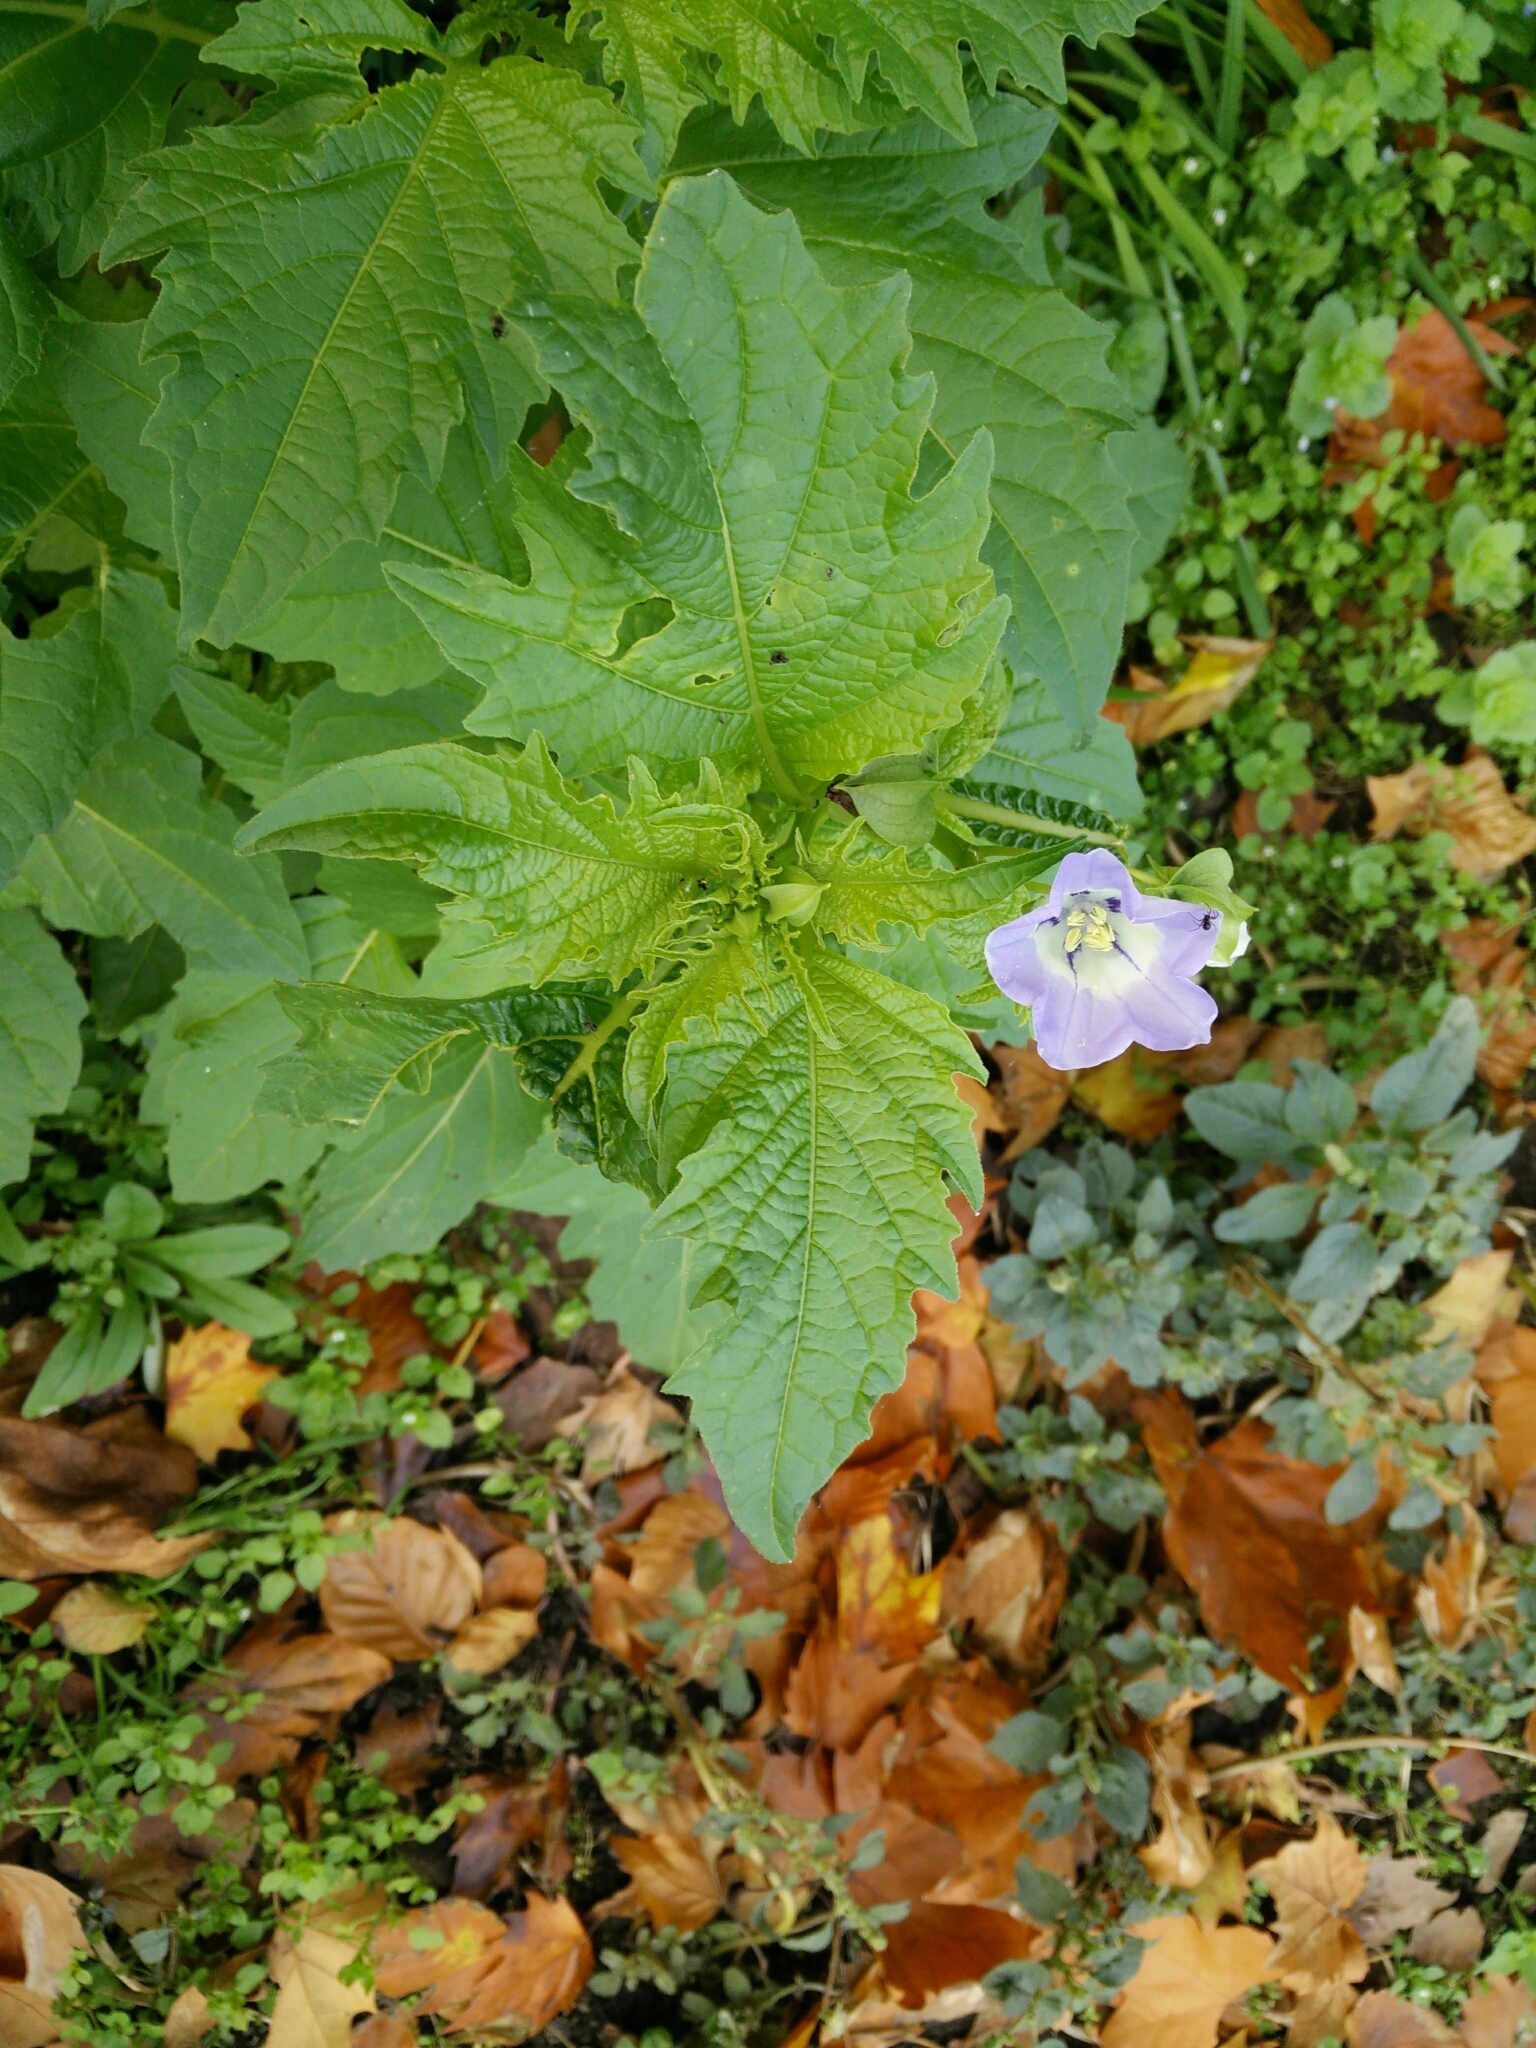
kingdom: Plantae
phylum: Tracheophyta
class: Magnoliopsida
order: Solanales
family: Solanaceae
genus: Nicandra
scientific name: Nicandra physalodes
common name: Apple-of-peru
